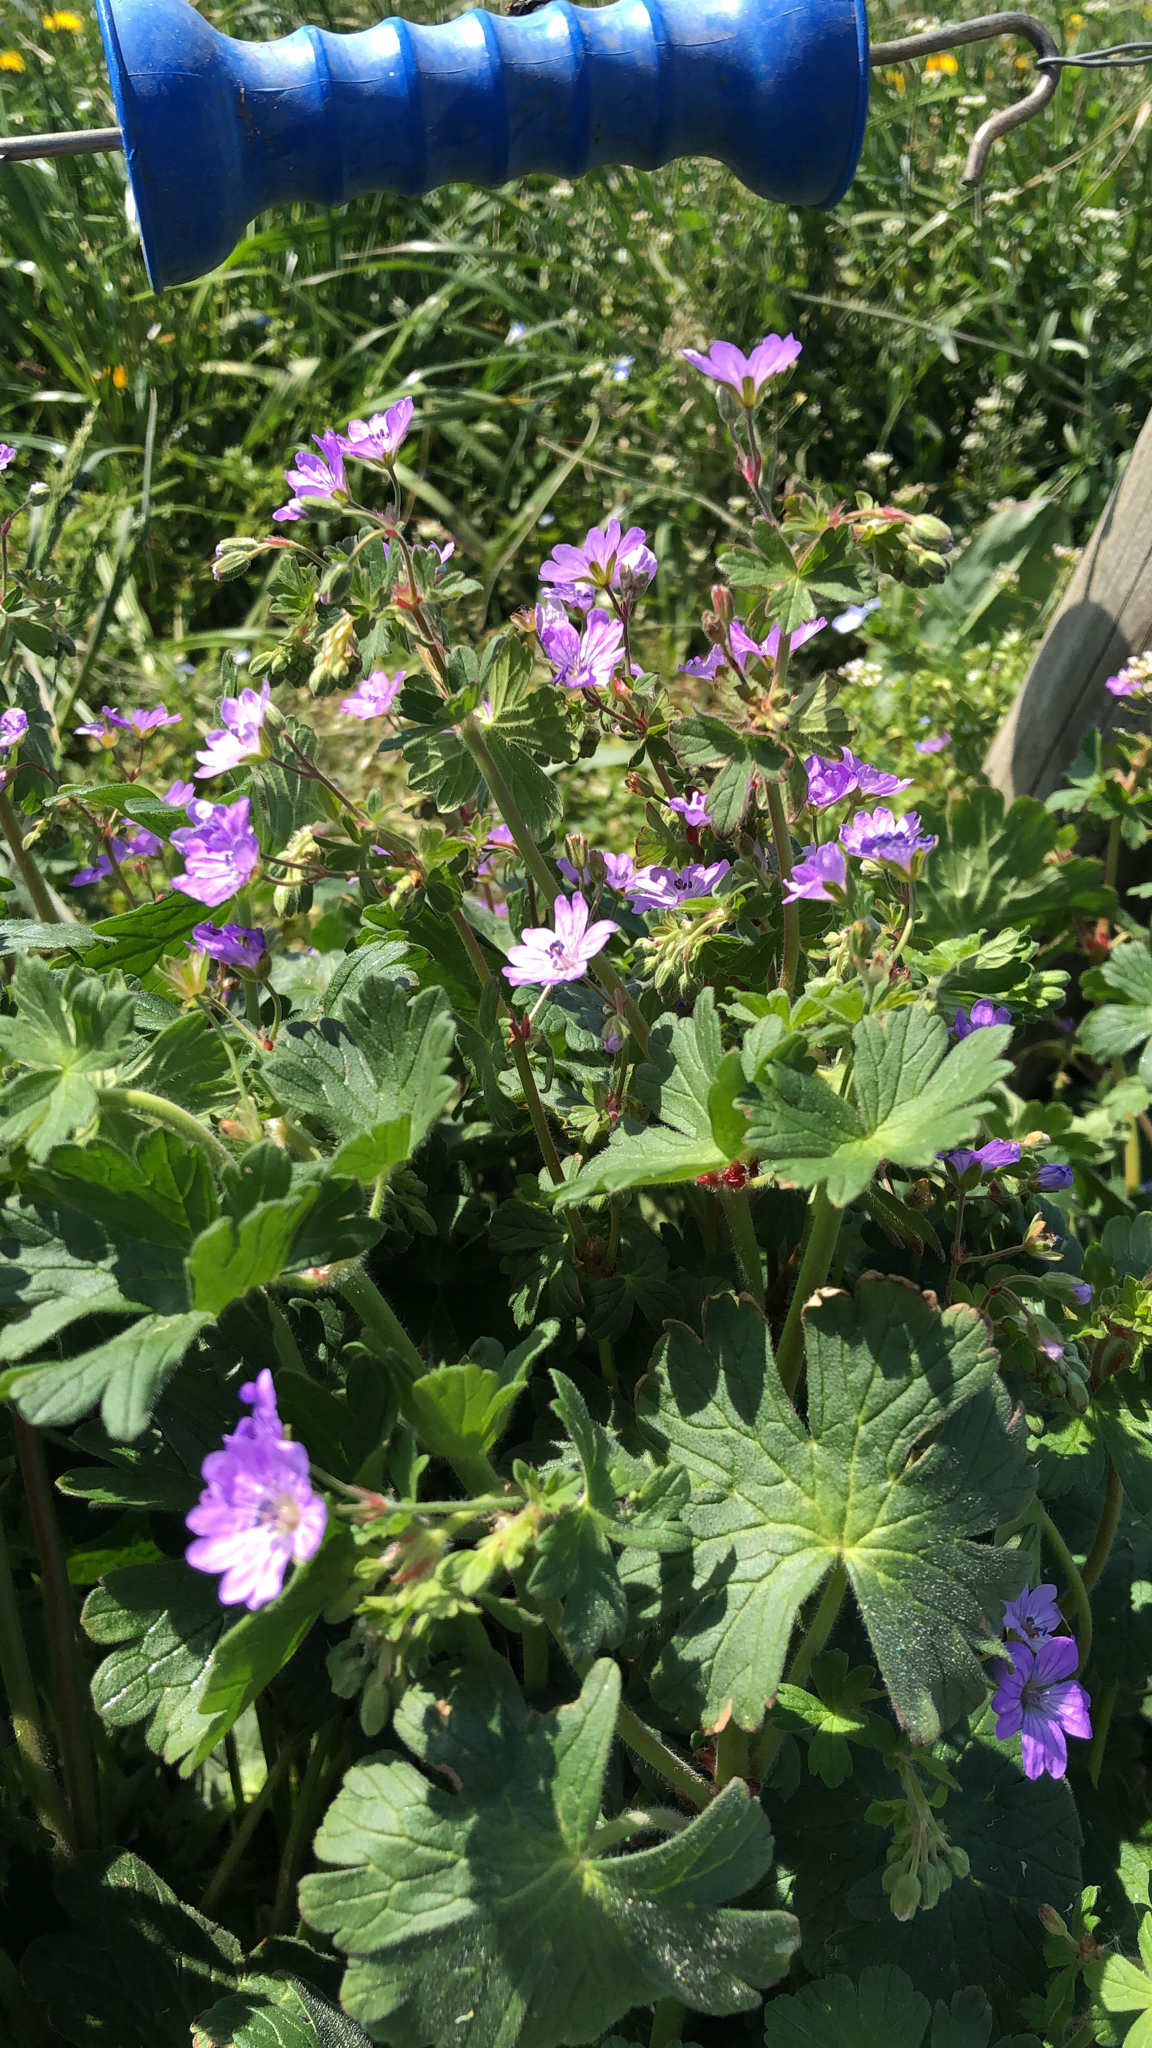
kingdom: Plantae
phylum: Tracheophyta
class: Magnoliopsida
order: Geraniales
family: Geraniaceae
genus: Geranium
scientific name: Geranium pyrenaicum
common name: Hedgerow crane's-bill
